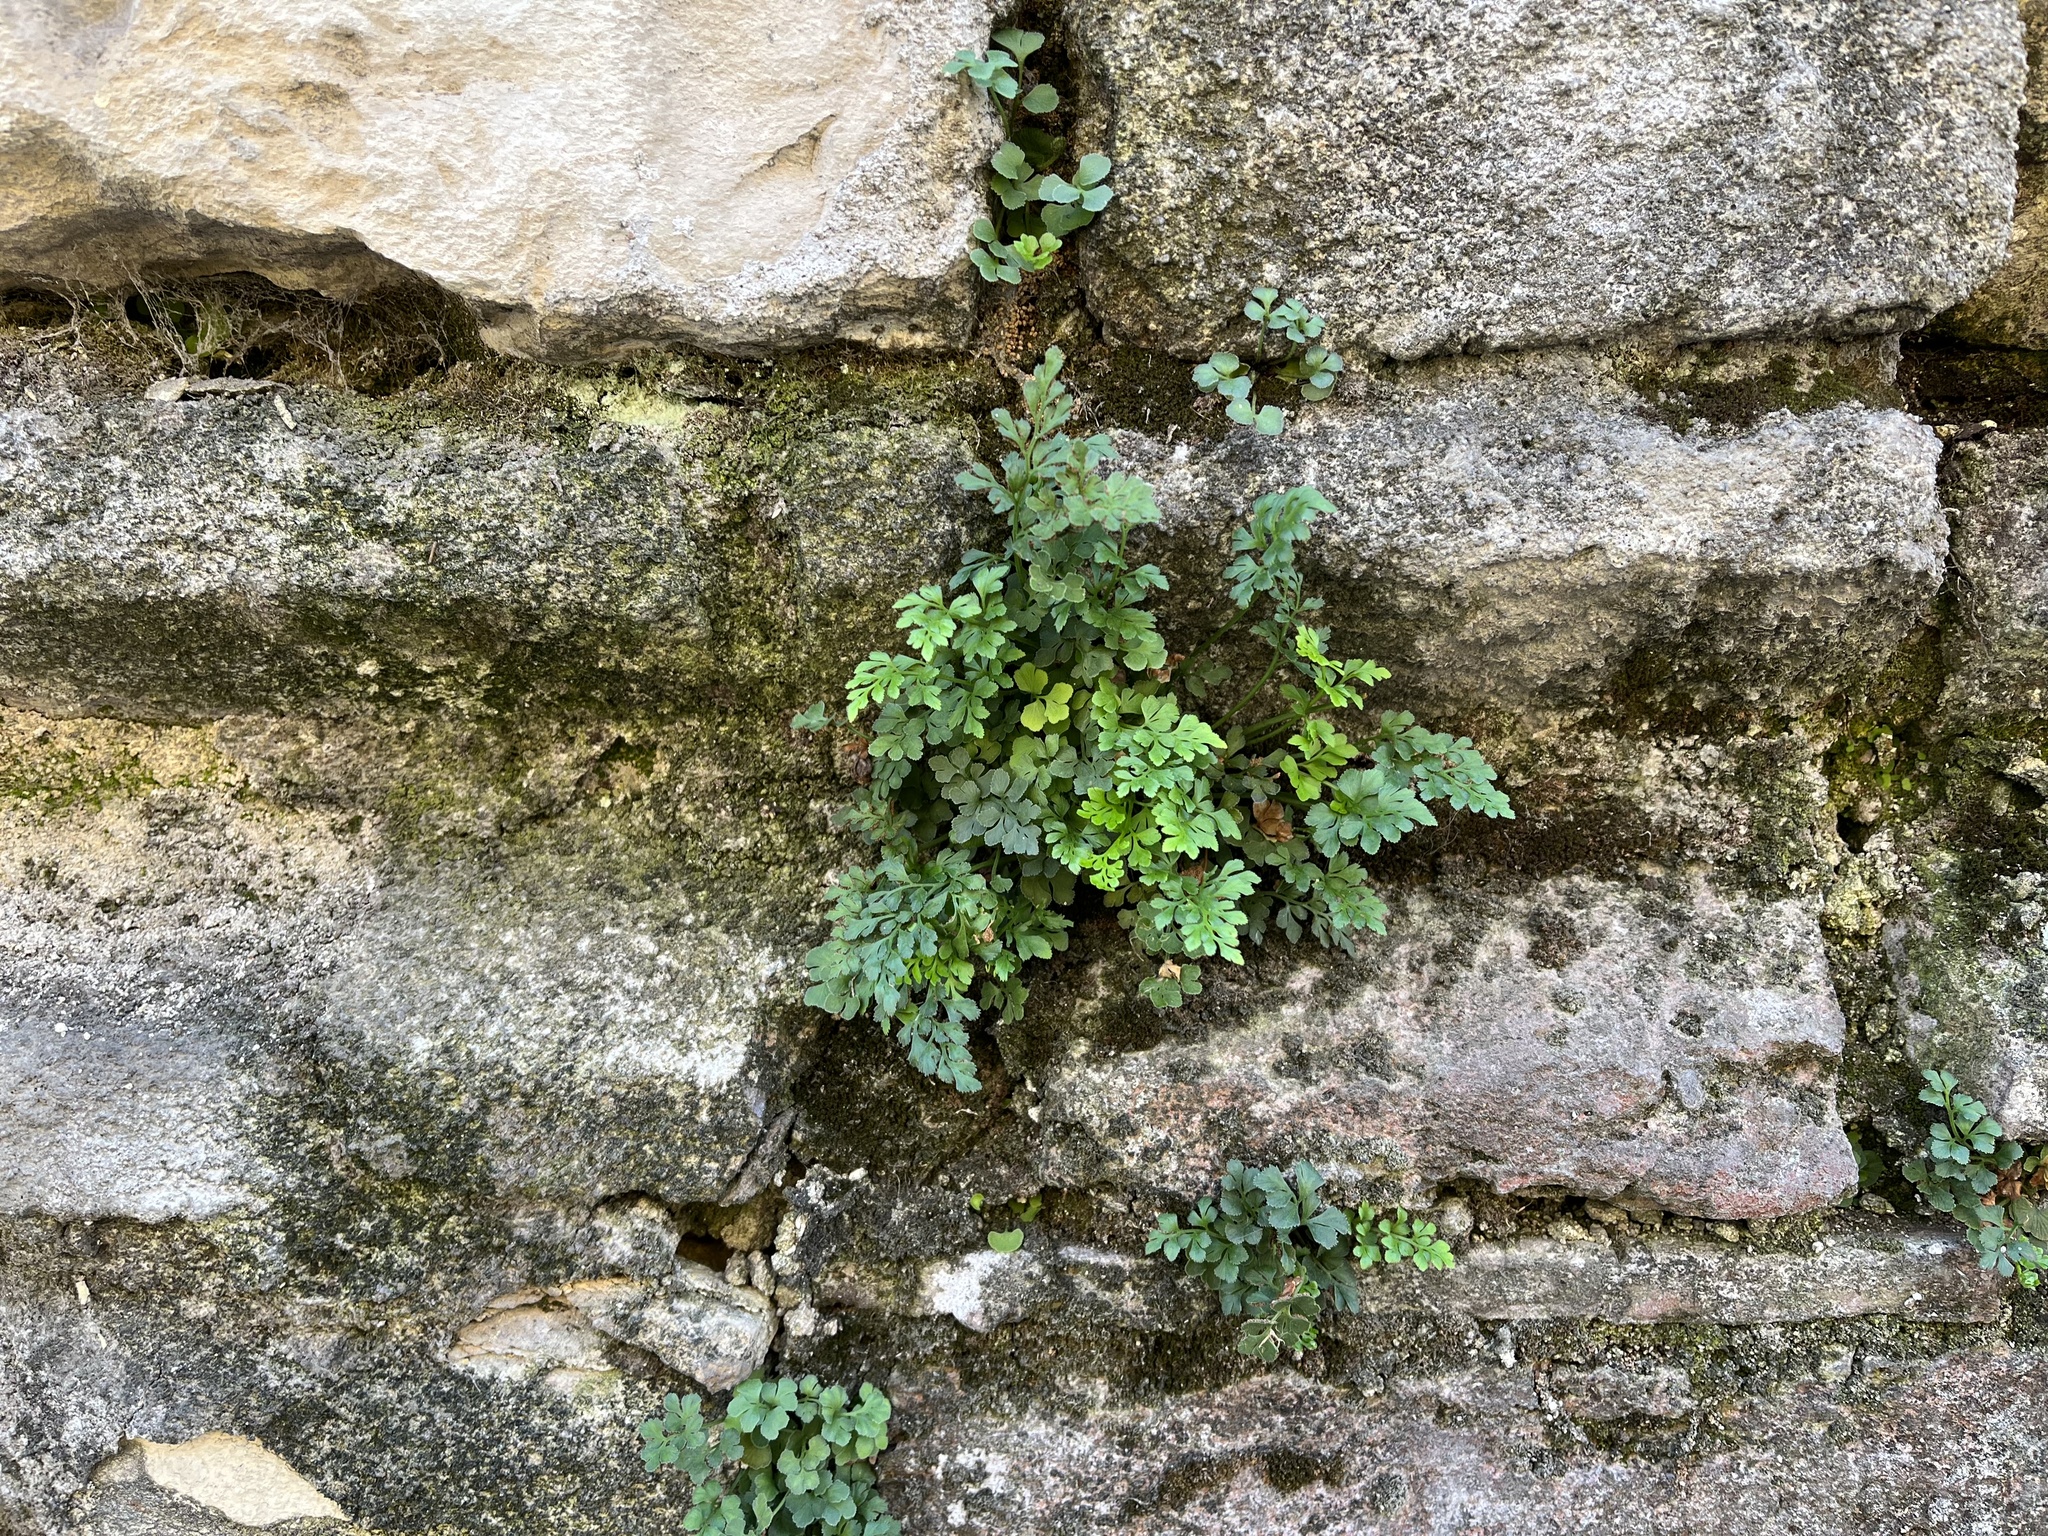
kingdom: Plantae
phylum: Tracheophyta
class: Polypodiopsida
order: Polypodiales
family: Aspleniaceae
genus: Asplenium
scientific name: Asplenium ruta-muraria
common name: Wall-rue
